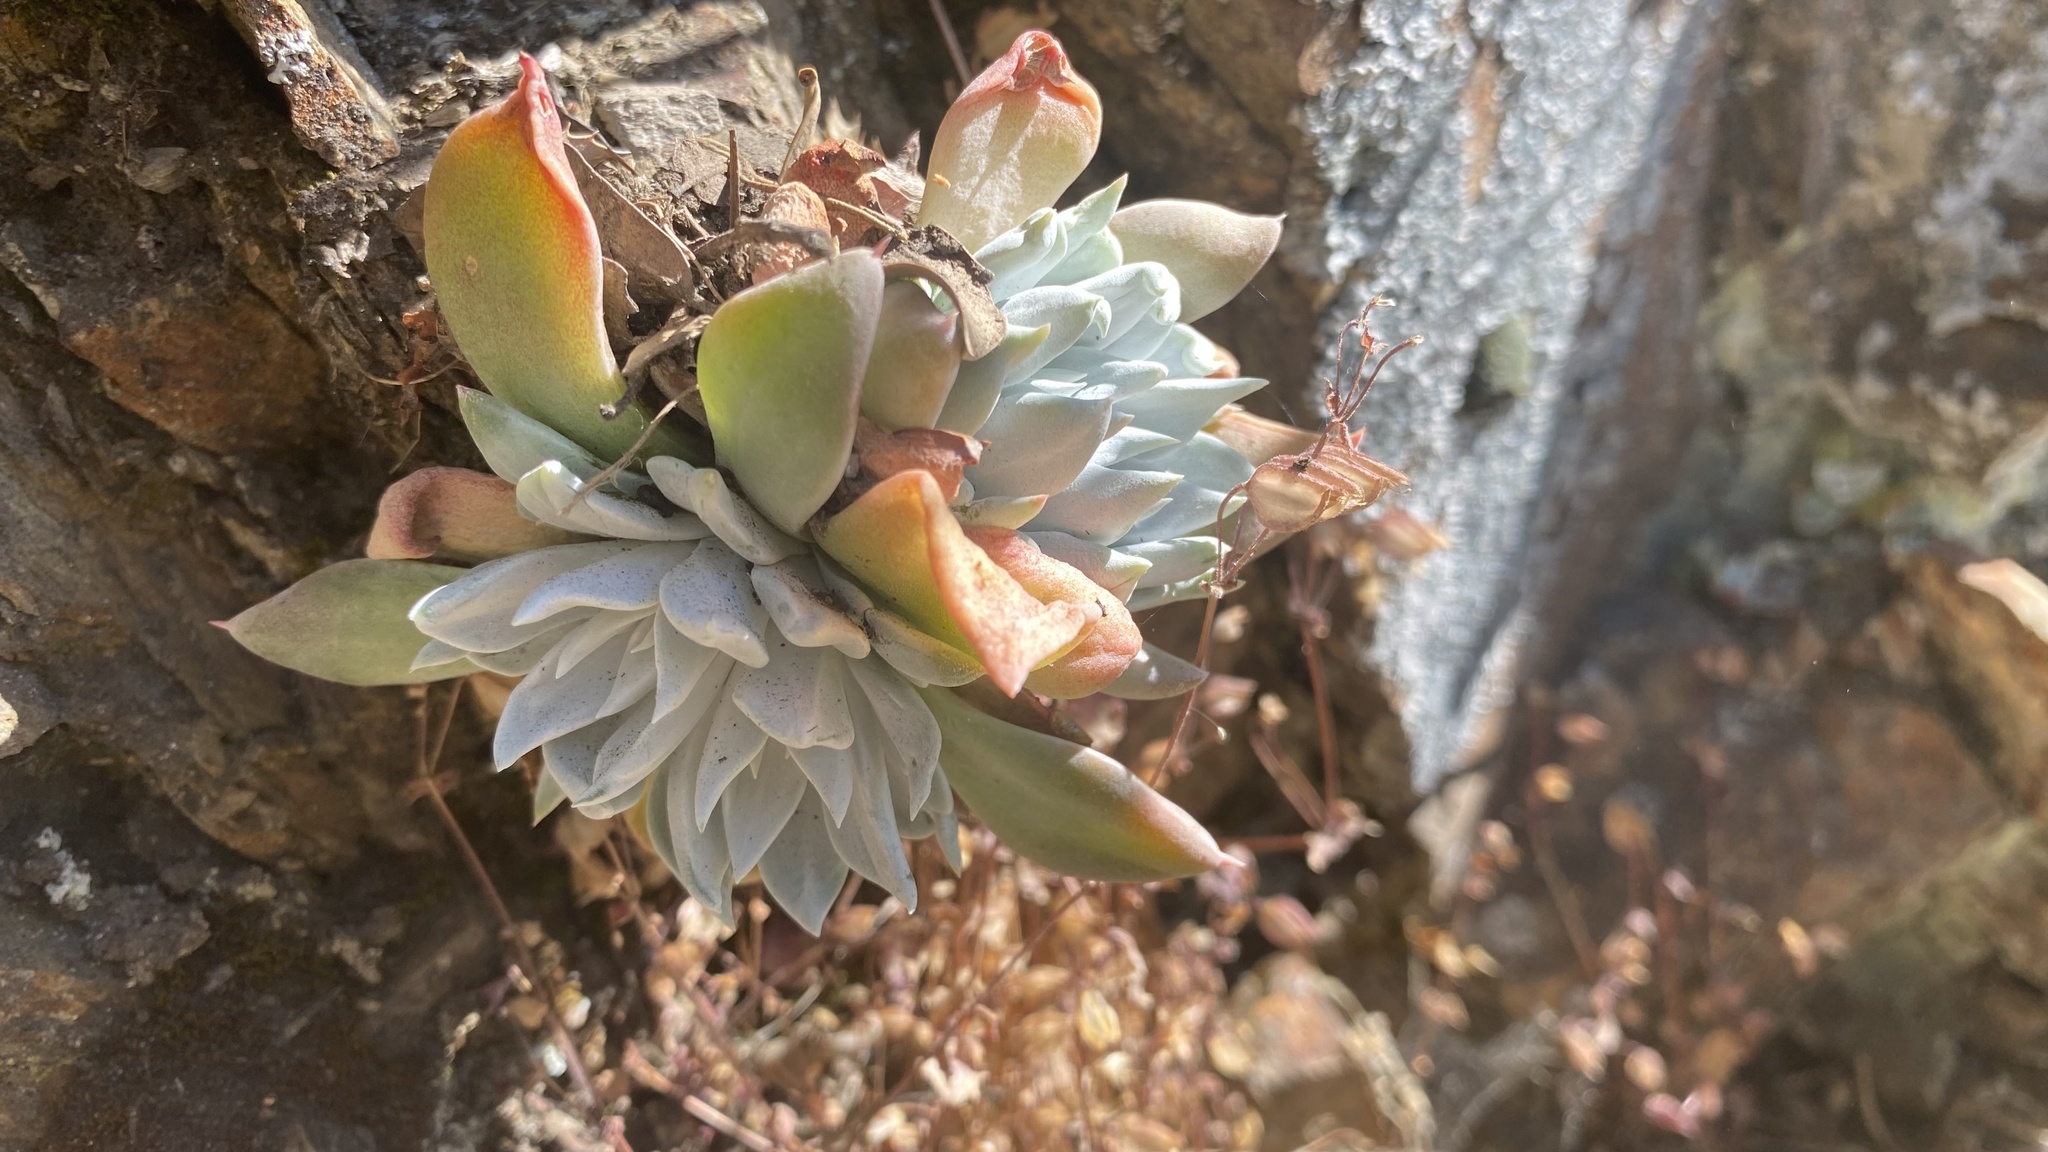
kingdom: Plantae
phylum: Tracheophyta
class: Magnoliopsida
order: Saxifragales
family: Crassulaceae
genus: Dudleya
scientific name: Dudleya cymosa
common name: Canyon dudleya
